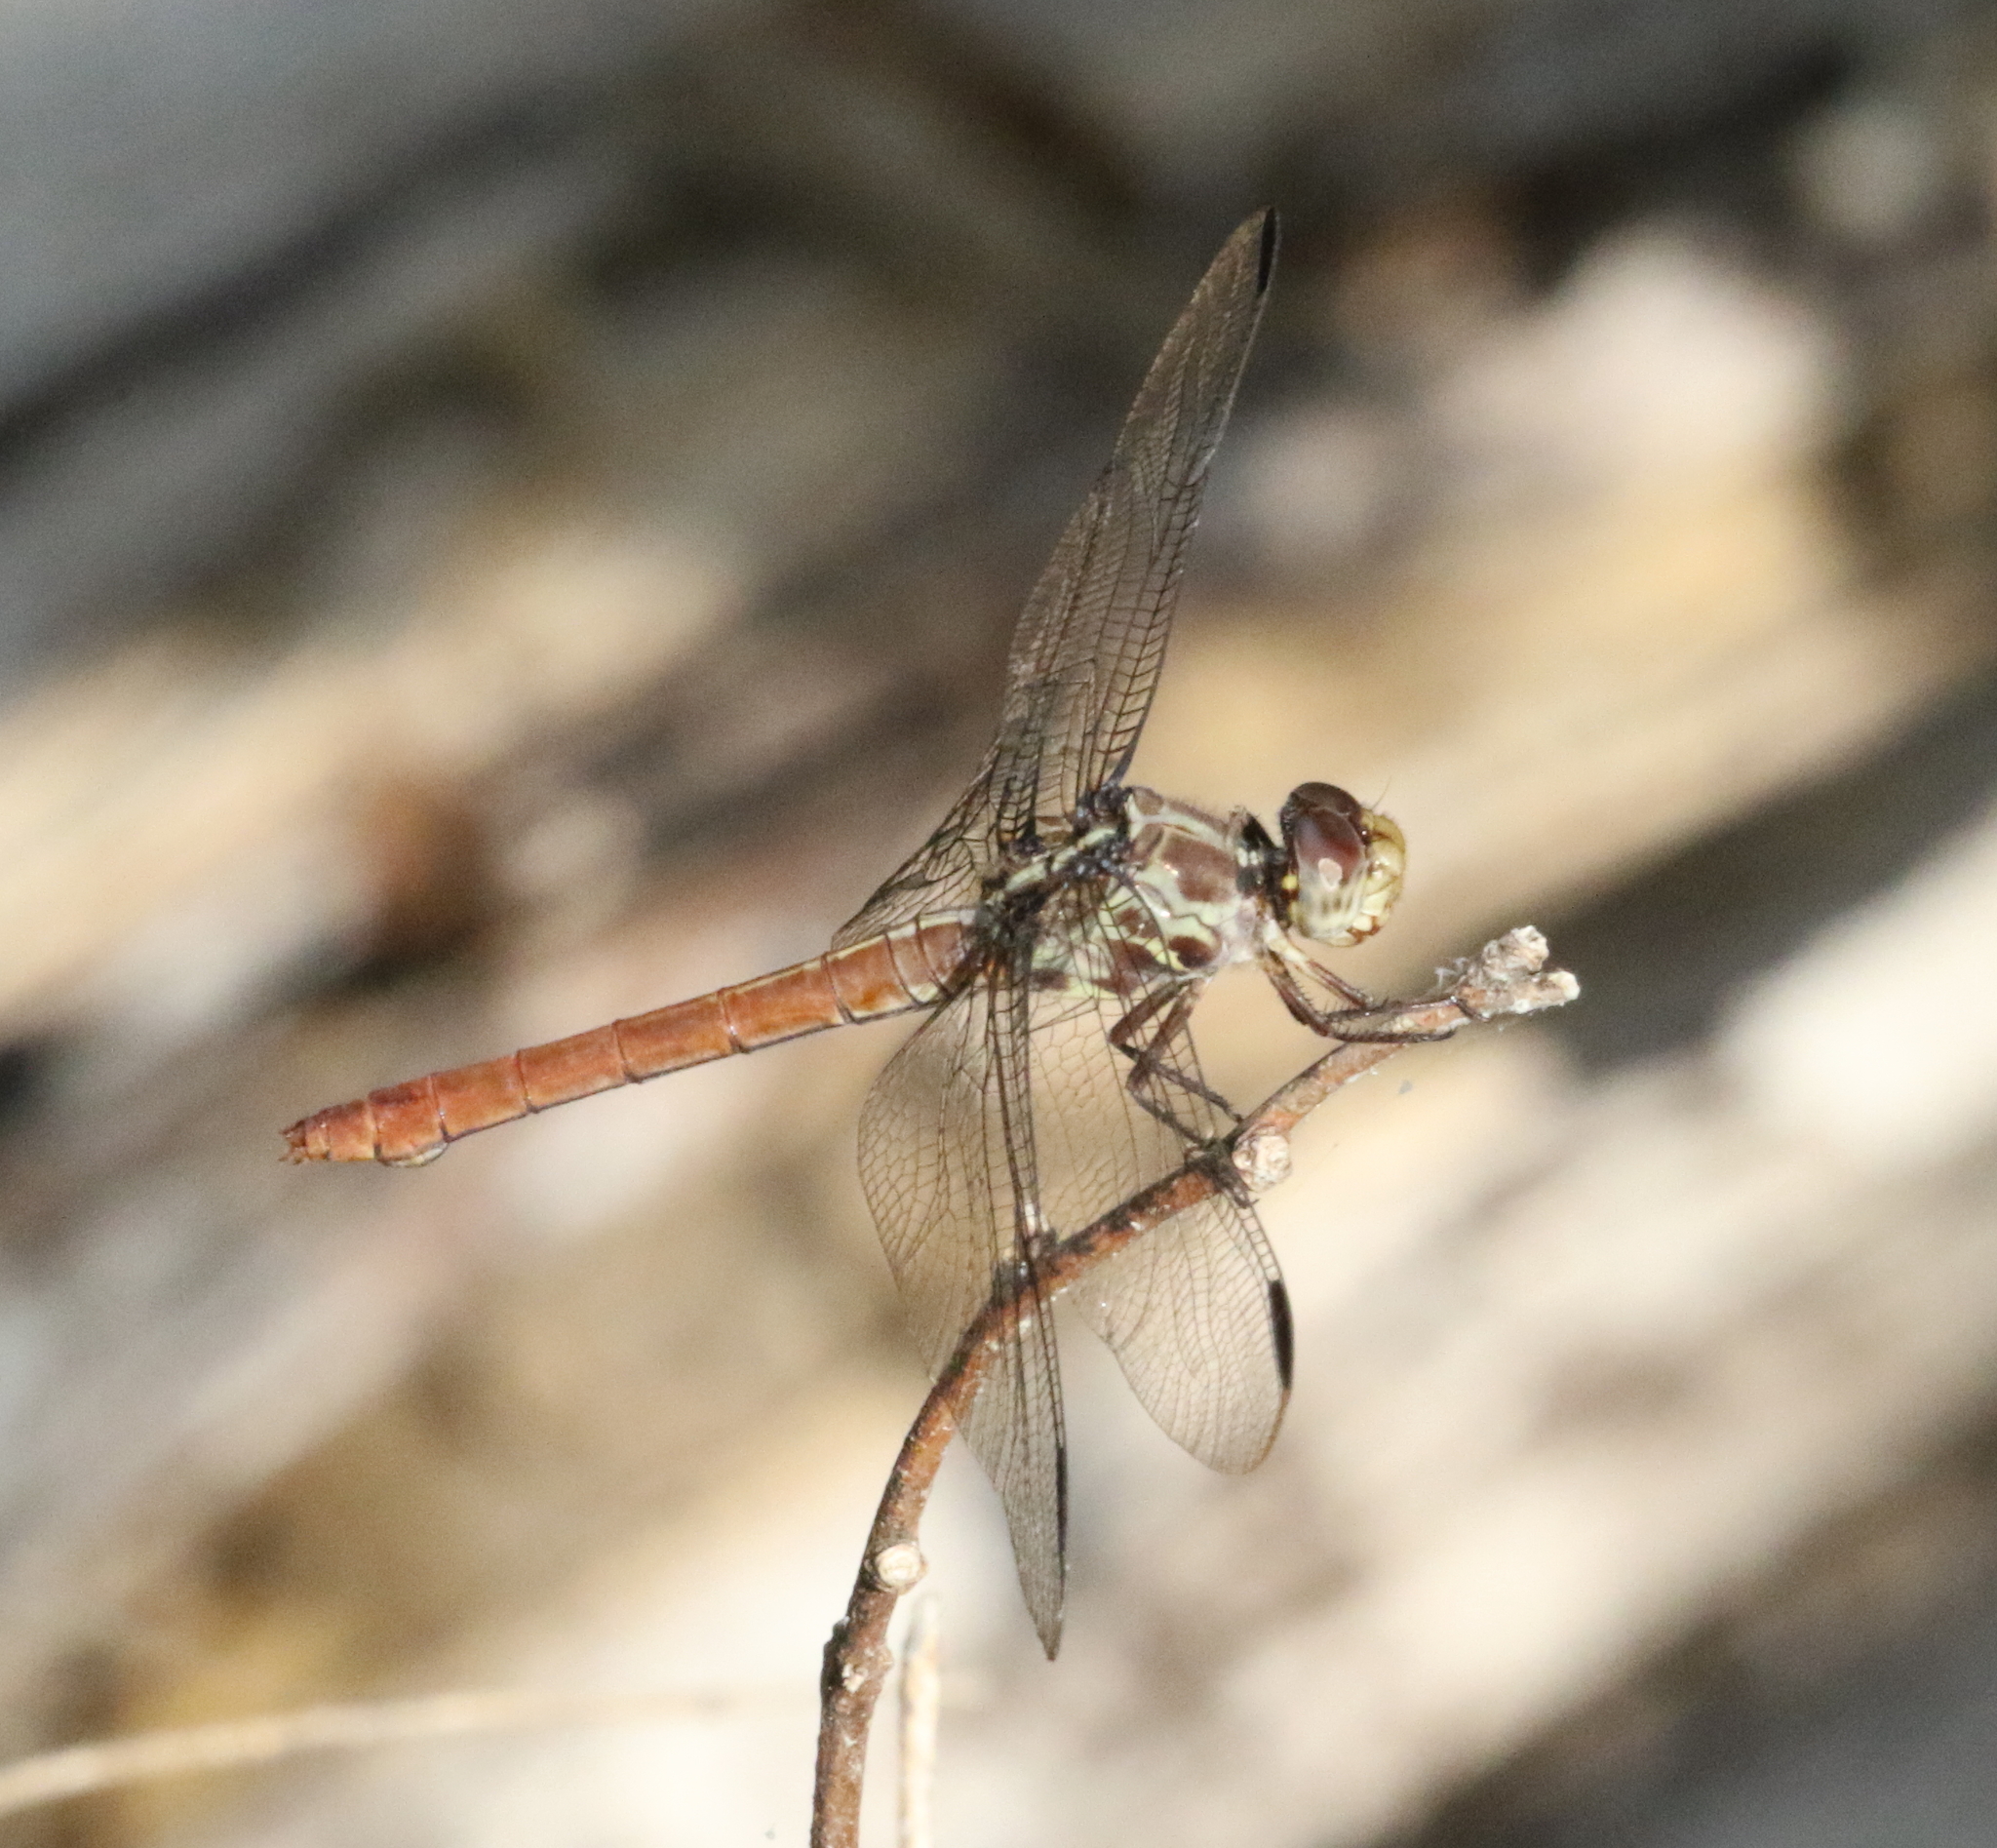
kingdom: Animalia
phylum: Arthropoda
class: Insecta
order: Odonata
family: Libellulidae
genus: Orthemis
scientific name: Orthemis ferruginea
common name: Roseate skimmer
